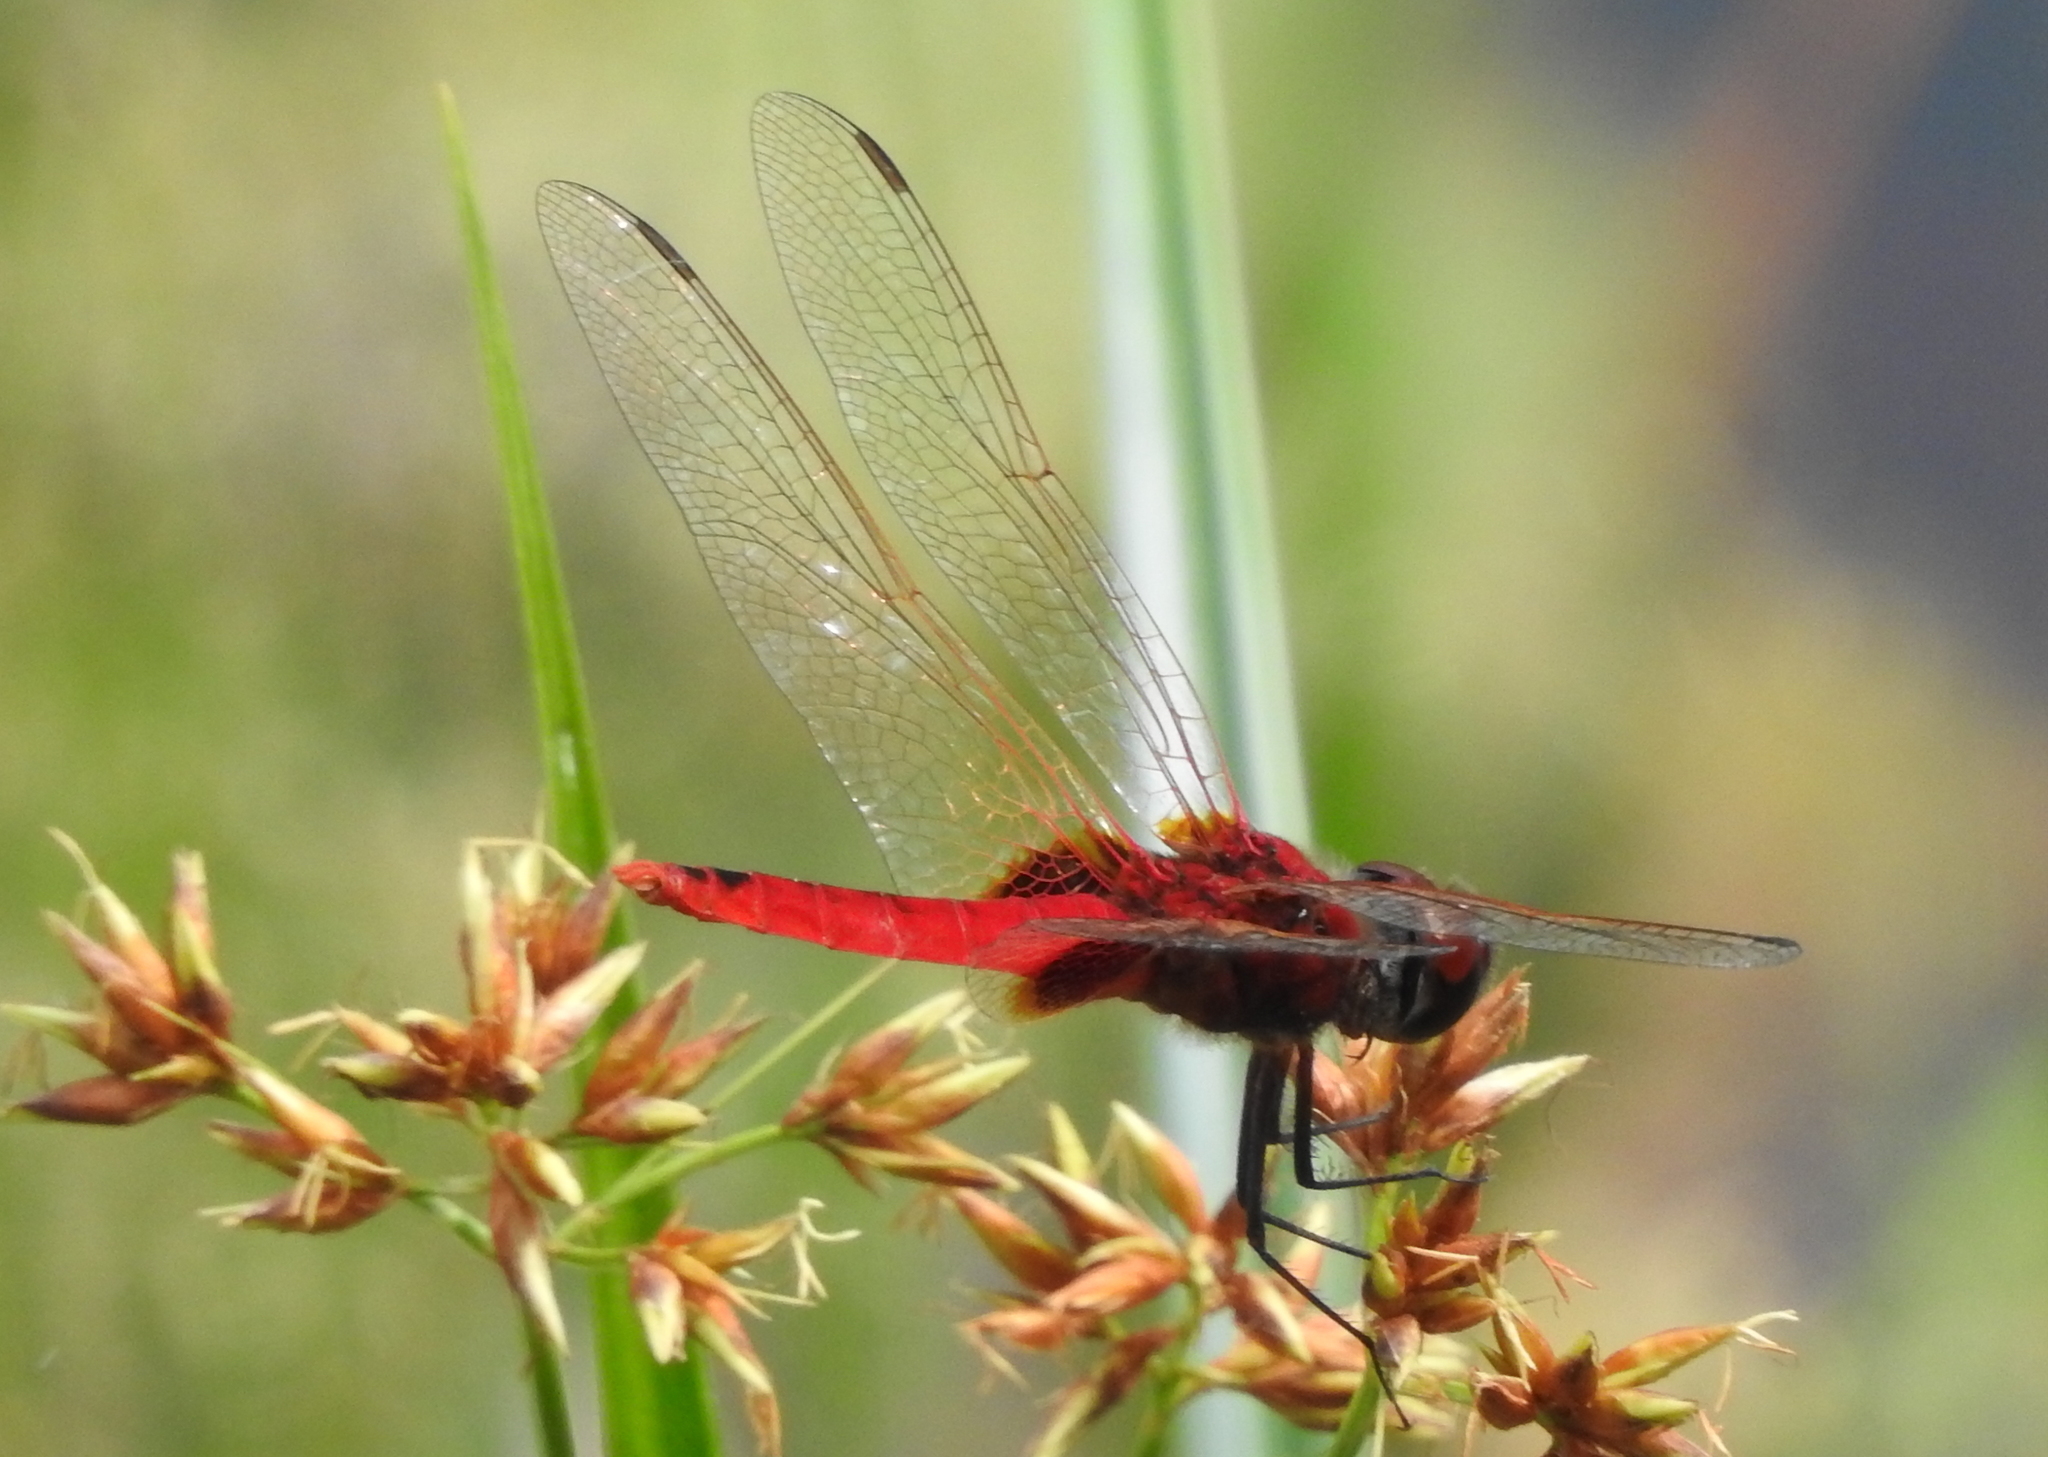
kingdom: Animalia
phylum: Arthropoda
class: Insecta
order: Odonata
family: Libellulidae
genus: Urothemis
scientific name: Urothemis signata
